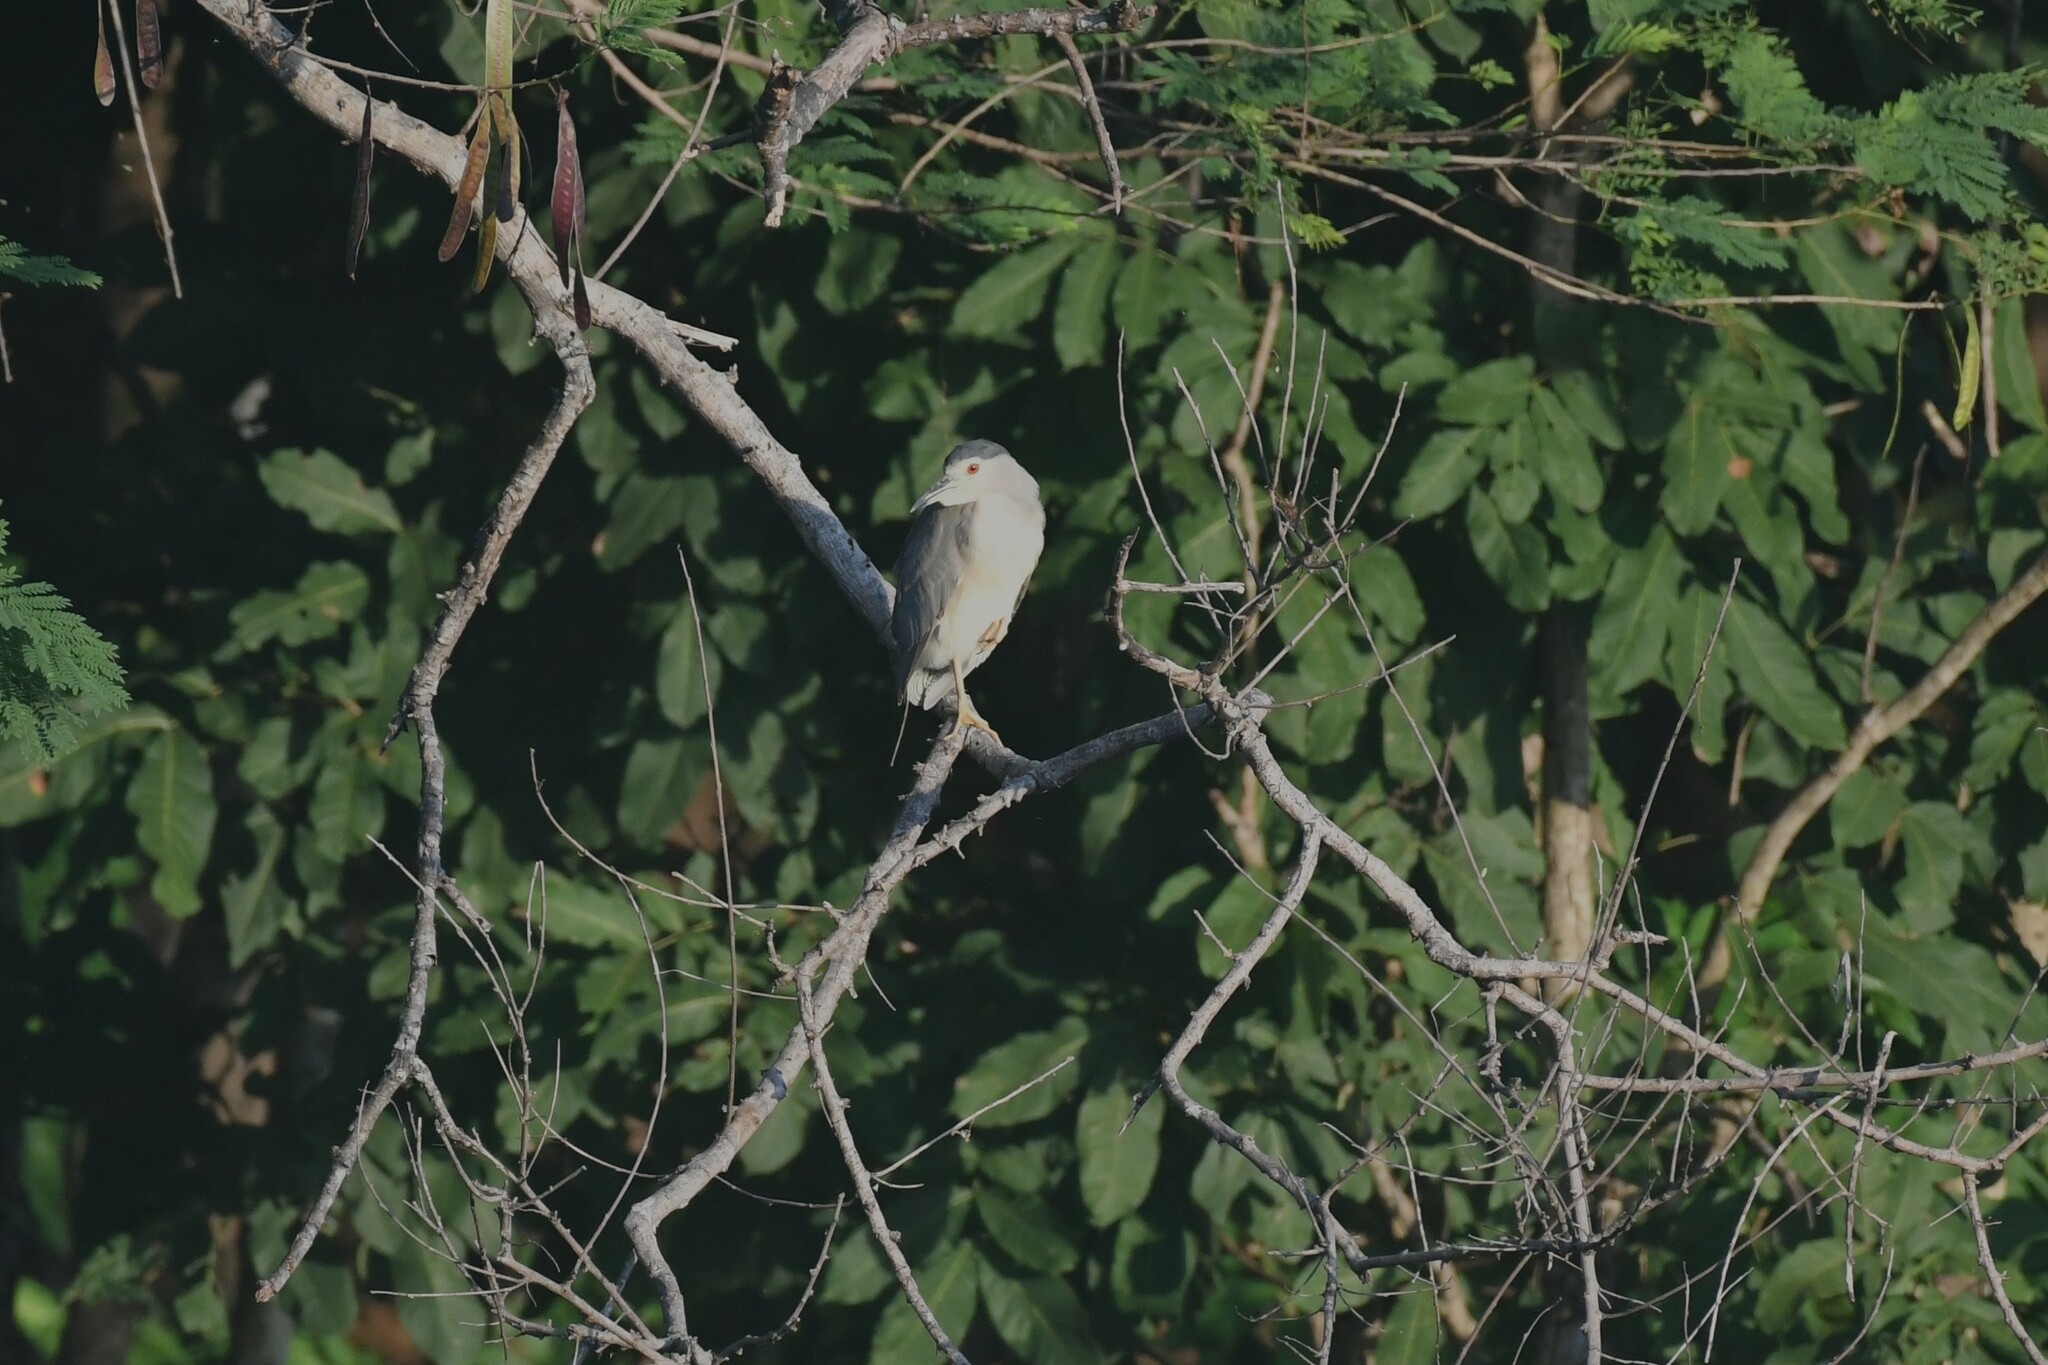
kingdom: Animalia
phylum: Chordata
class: Aves
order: Pelecaniformes
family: Ardeidae
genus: Nycticorax
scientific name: Nycticorax nycticorax
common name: Black-crowned night heron
